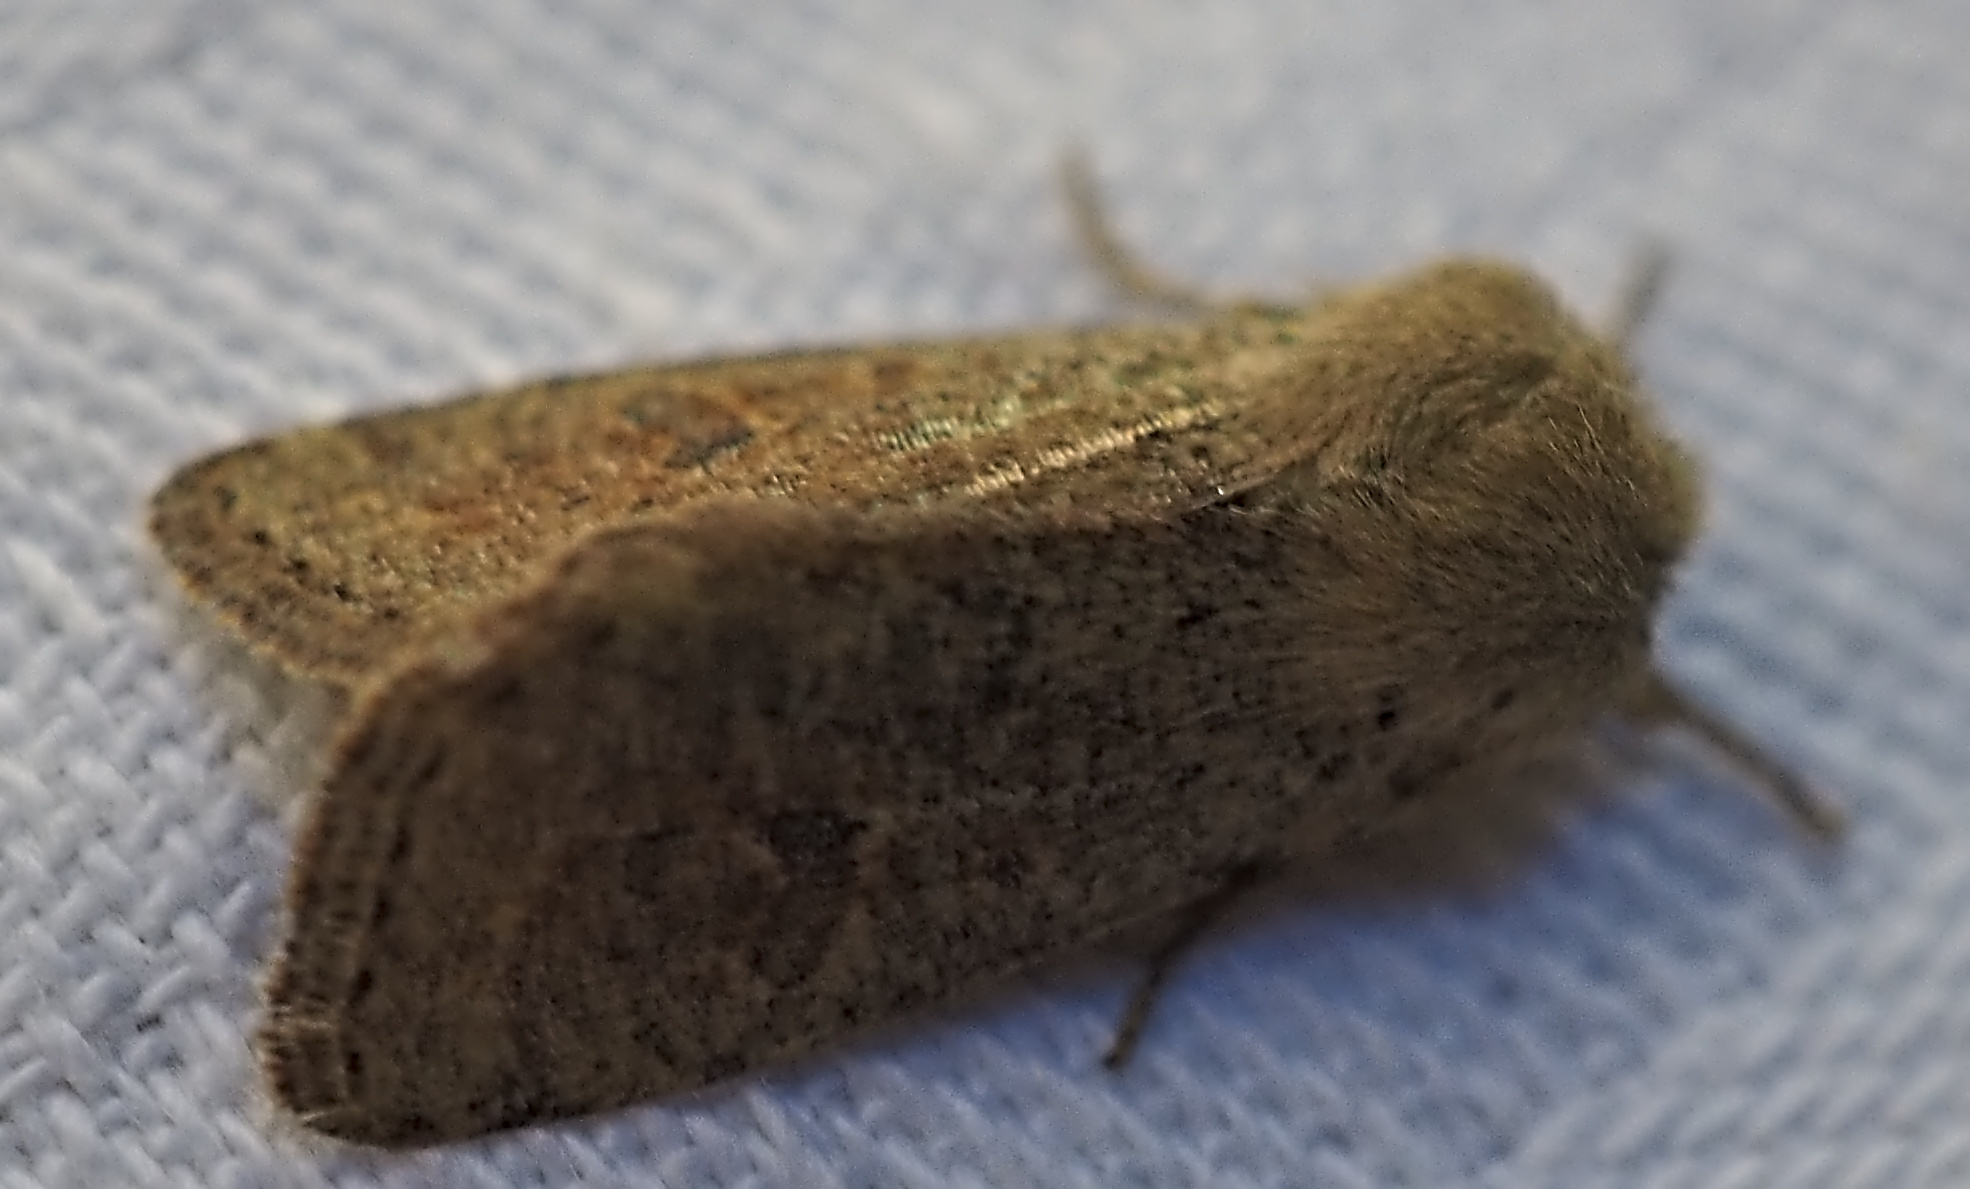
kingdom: Animalia
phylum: Arthropoda
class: Insecta
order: Lepidoptera
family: Noctuidae
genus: Orthosia
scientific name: Orthosia cruda
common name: Small quaker
